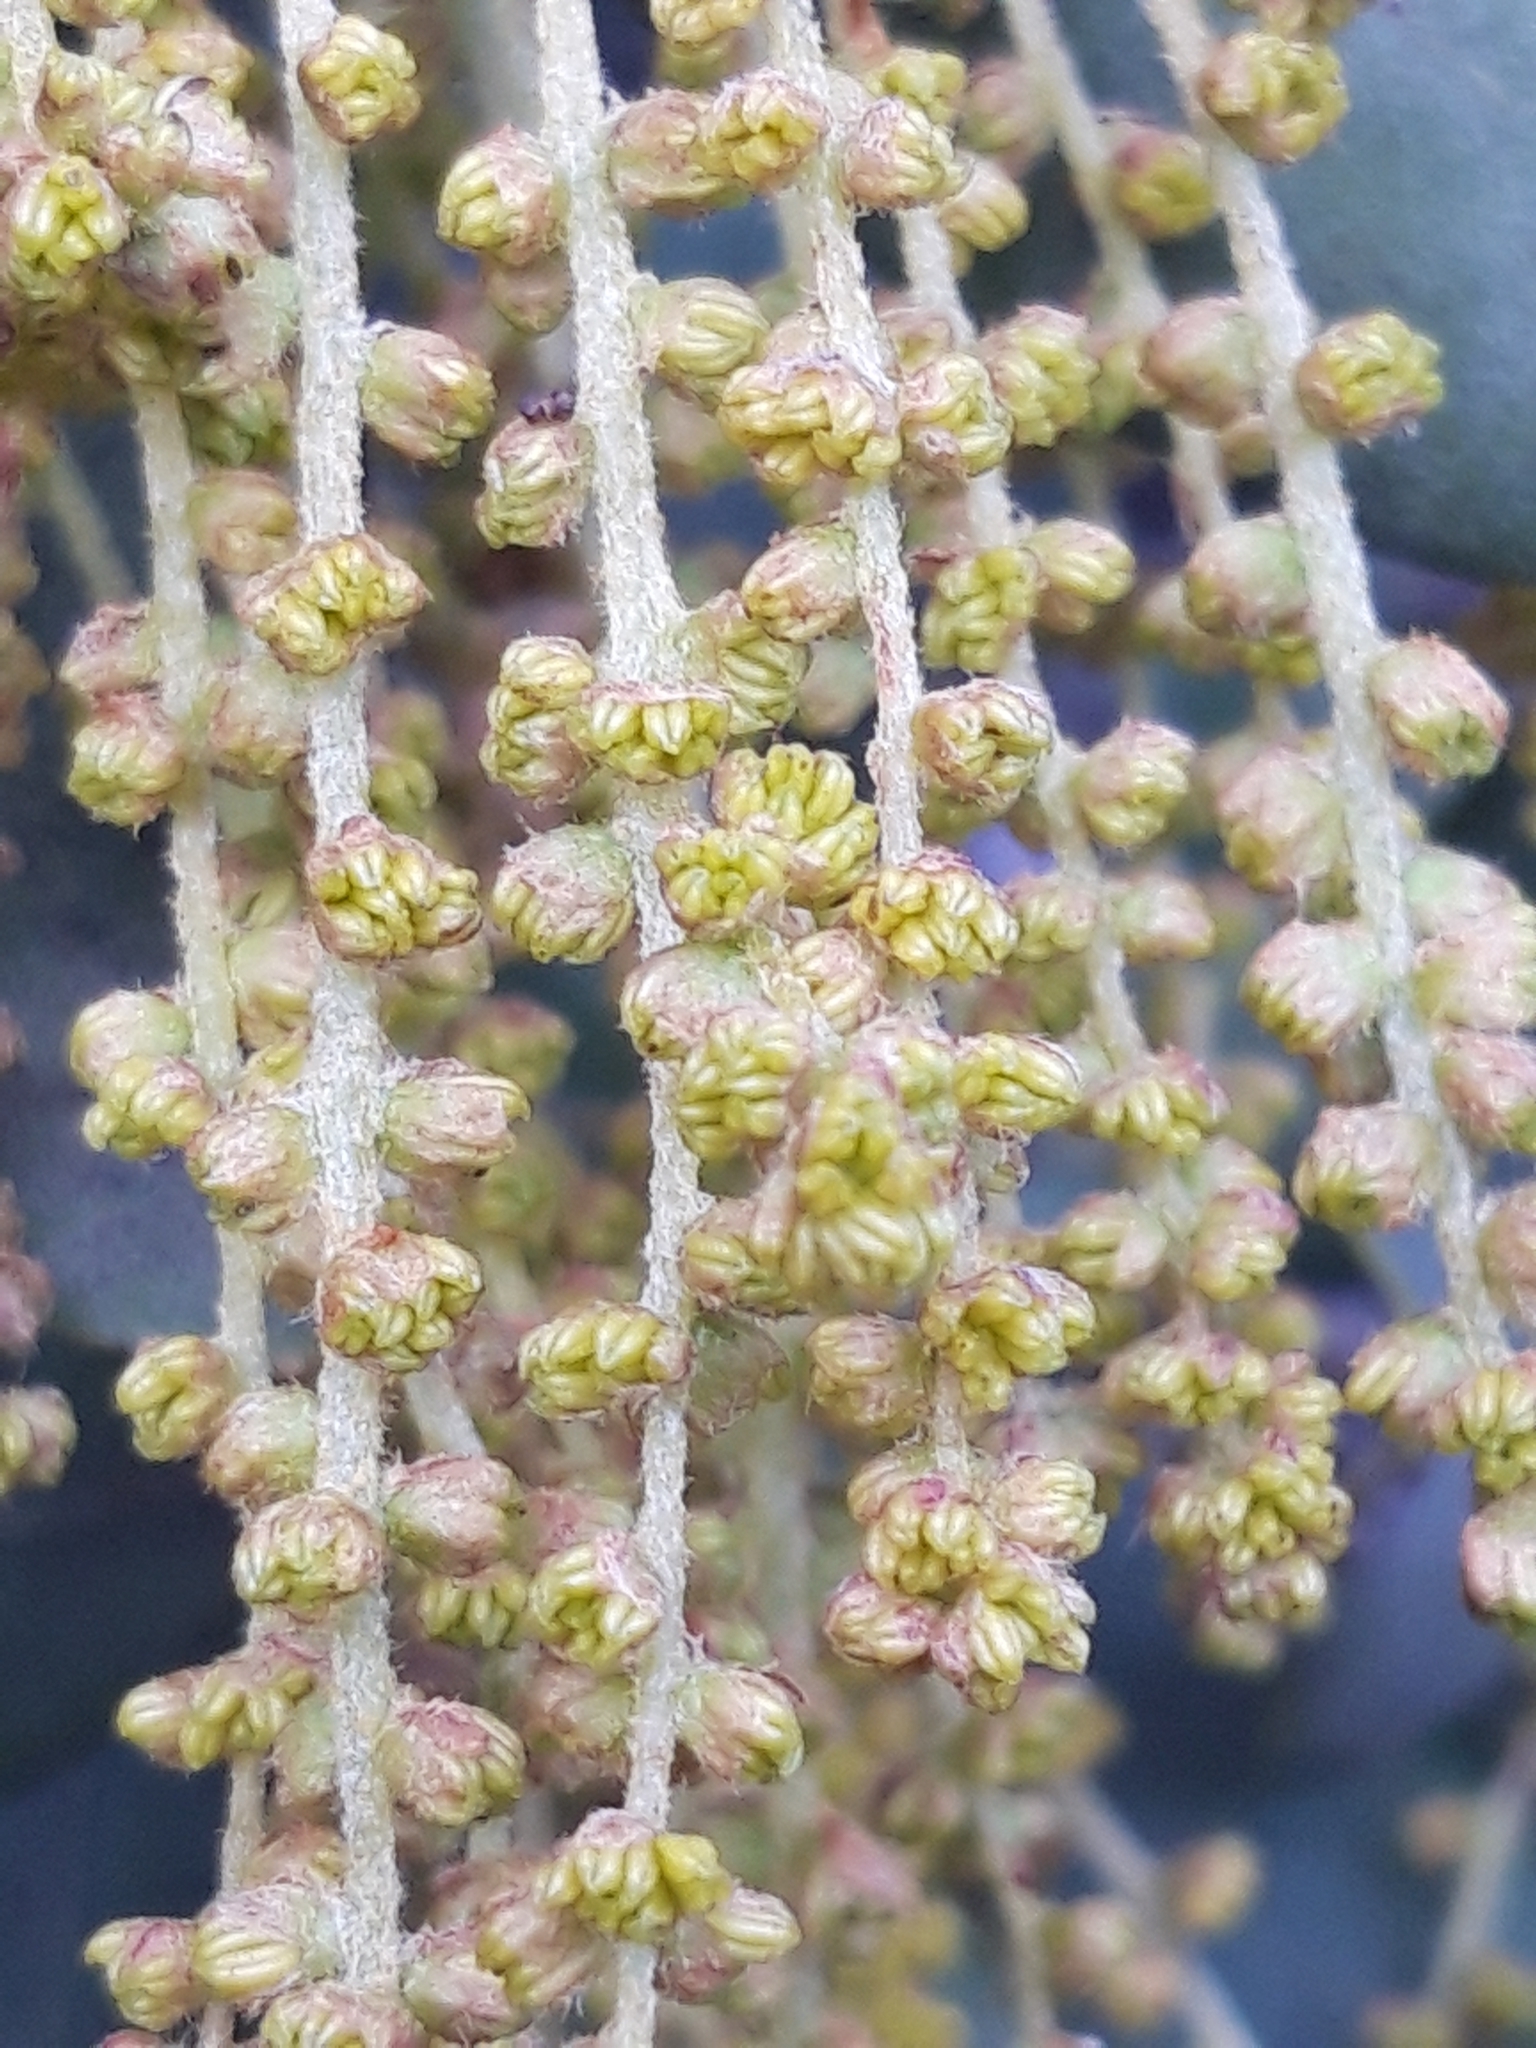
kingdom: Plantae
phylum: Tracheophyta
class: Magnoliopsida
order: Fagales
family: Fagaceae
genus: Quercus
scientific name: Quercus rotundifolia
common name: Holm oak
